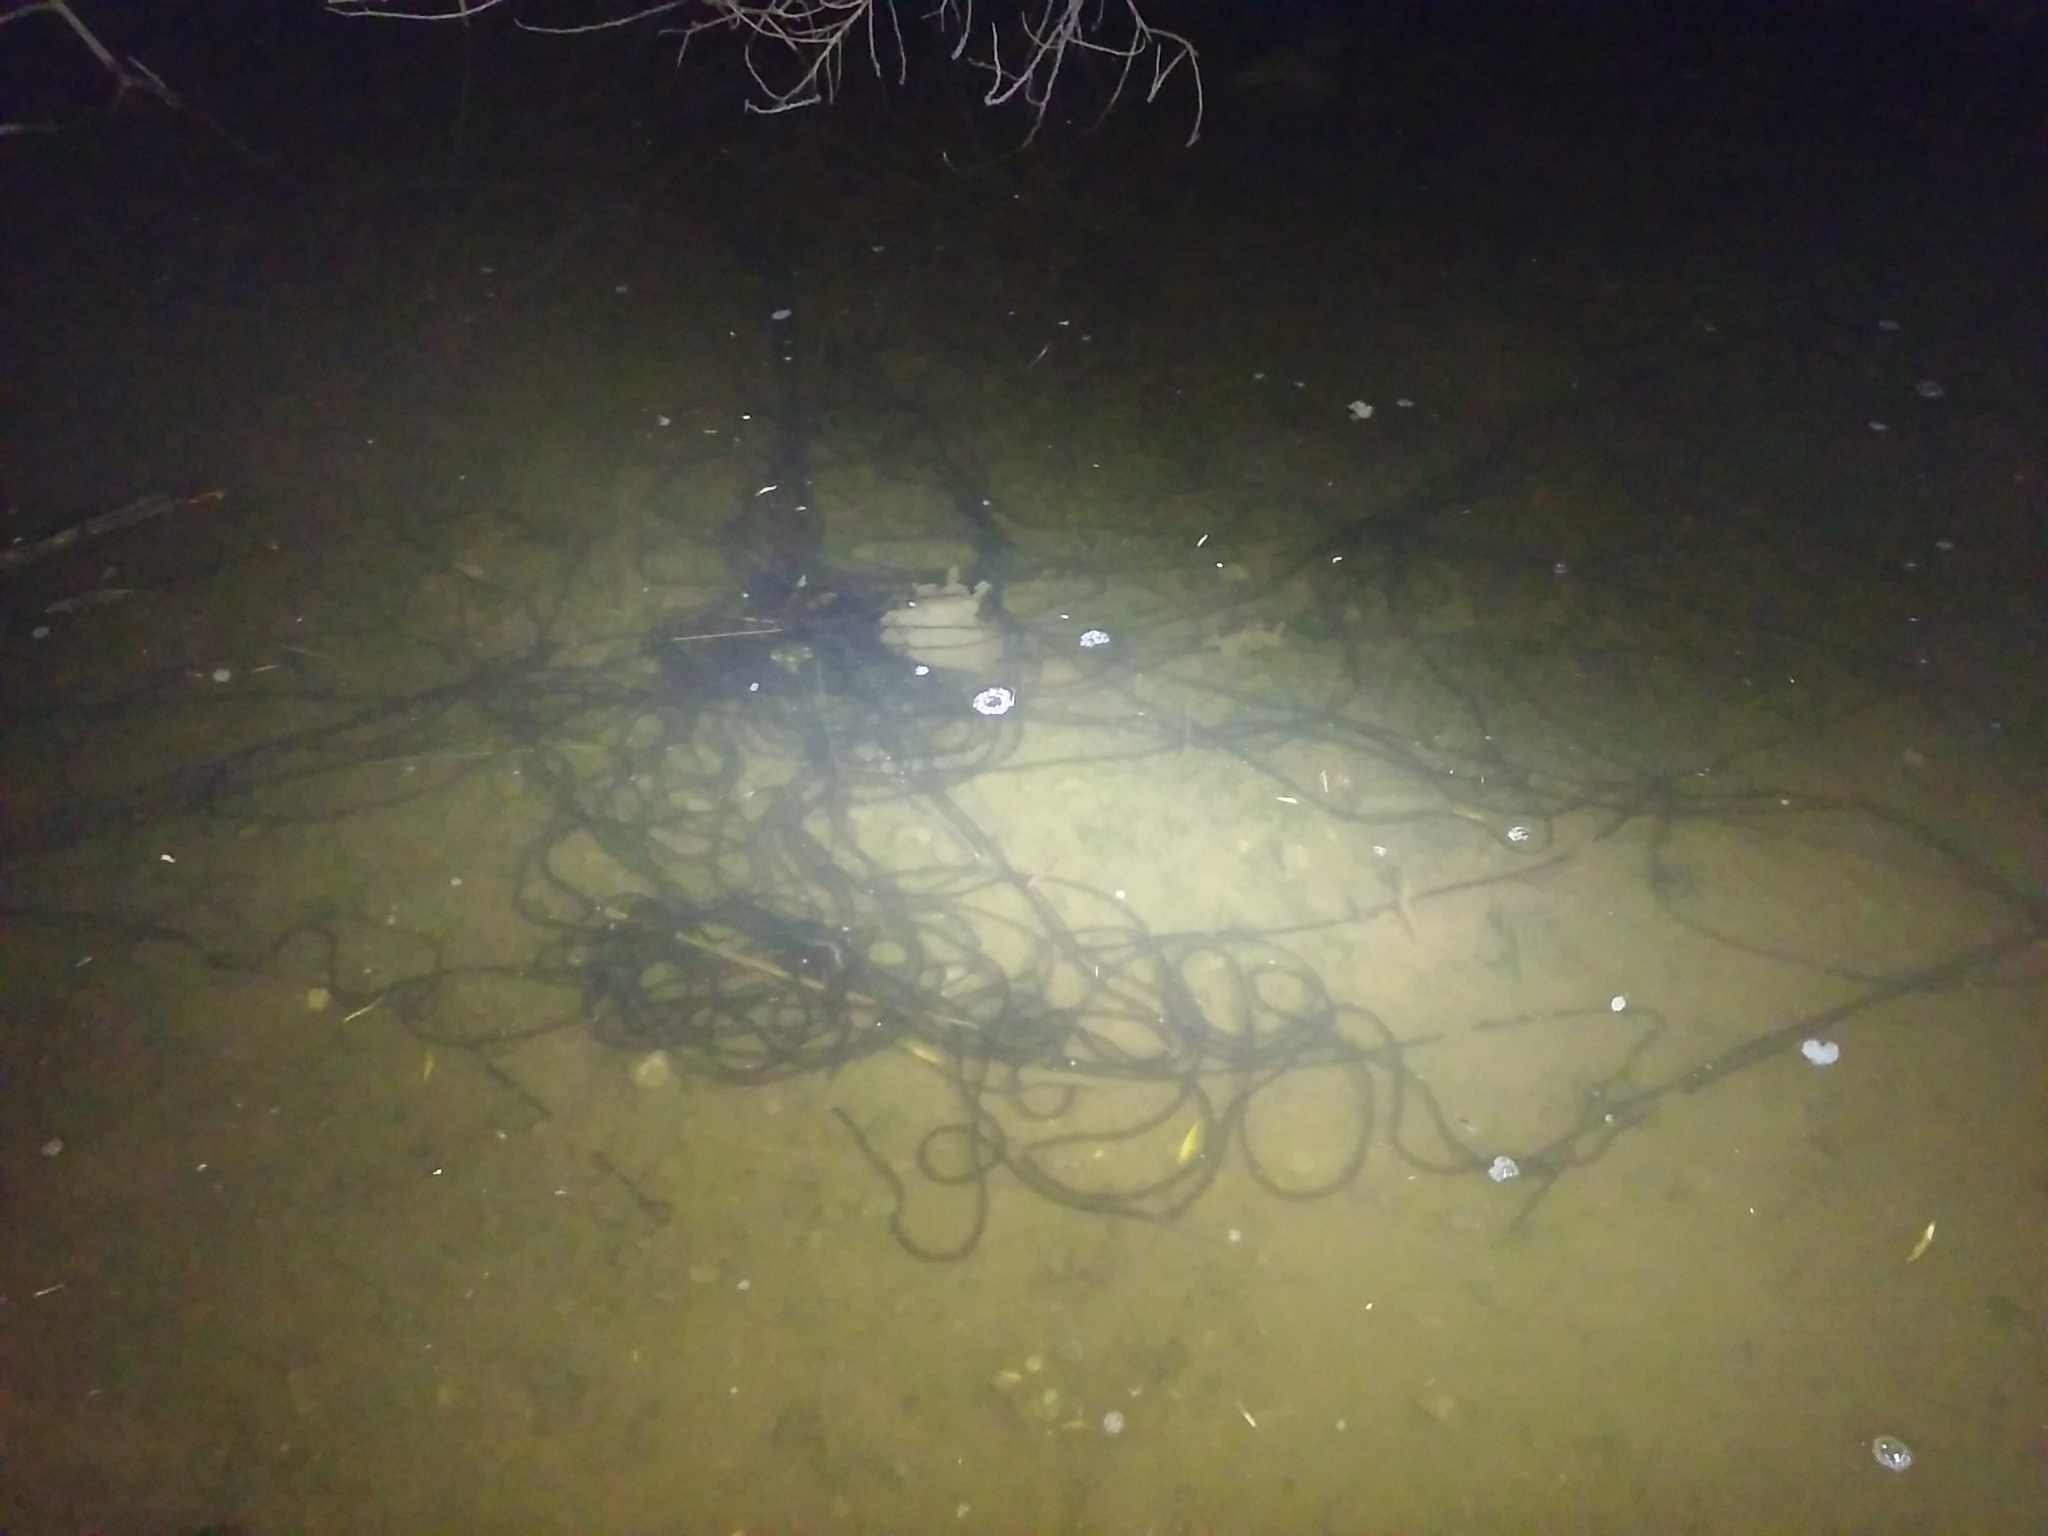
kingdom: Animalia
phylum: Chordata
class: Amphibia
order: Anura
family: Bufonidae
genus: Rhinella
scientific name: Rhinella
